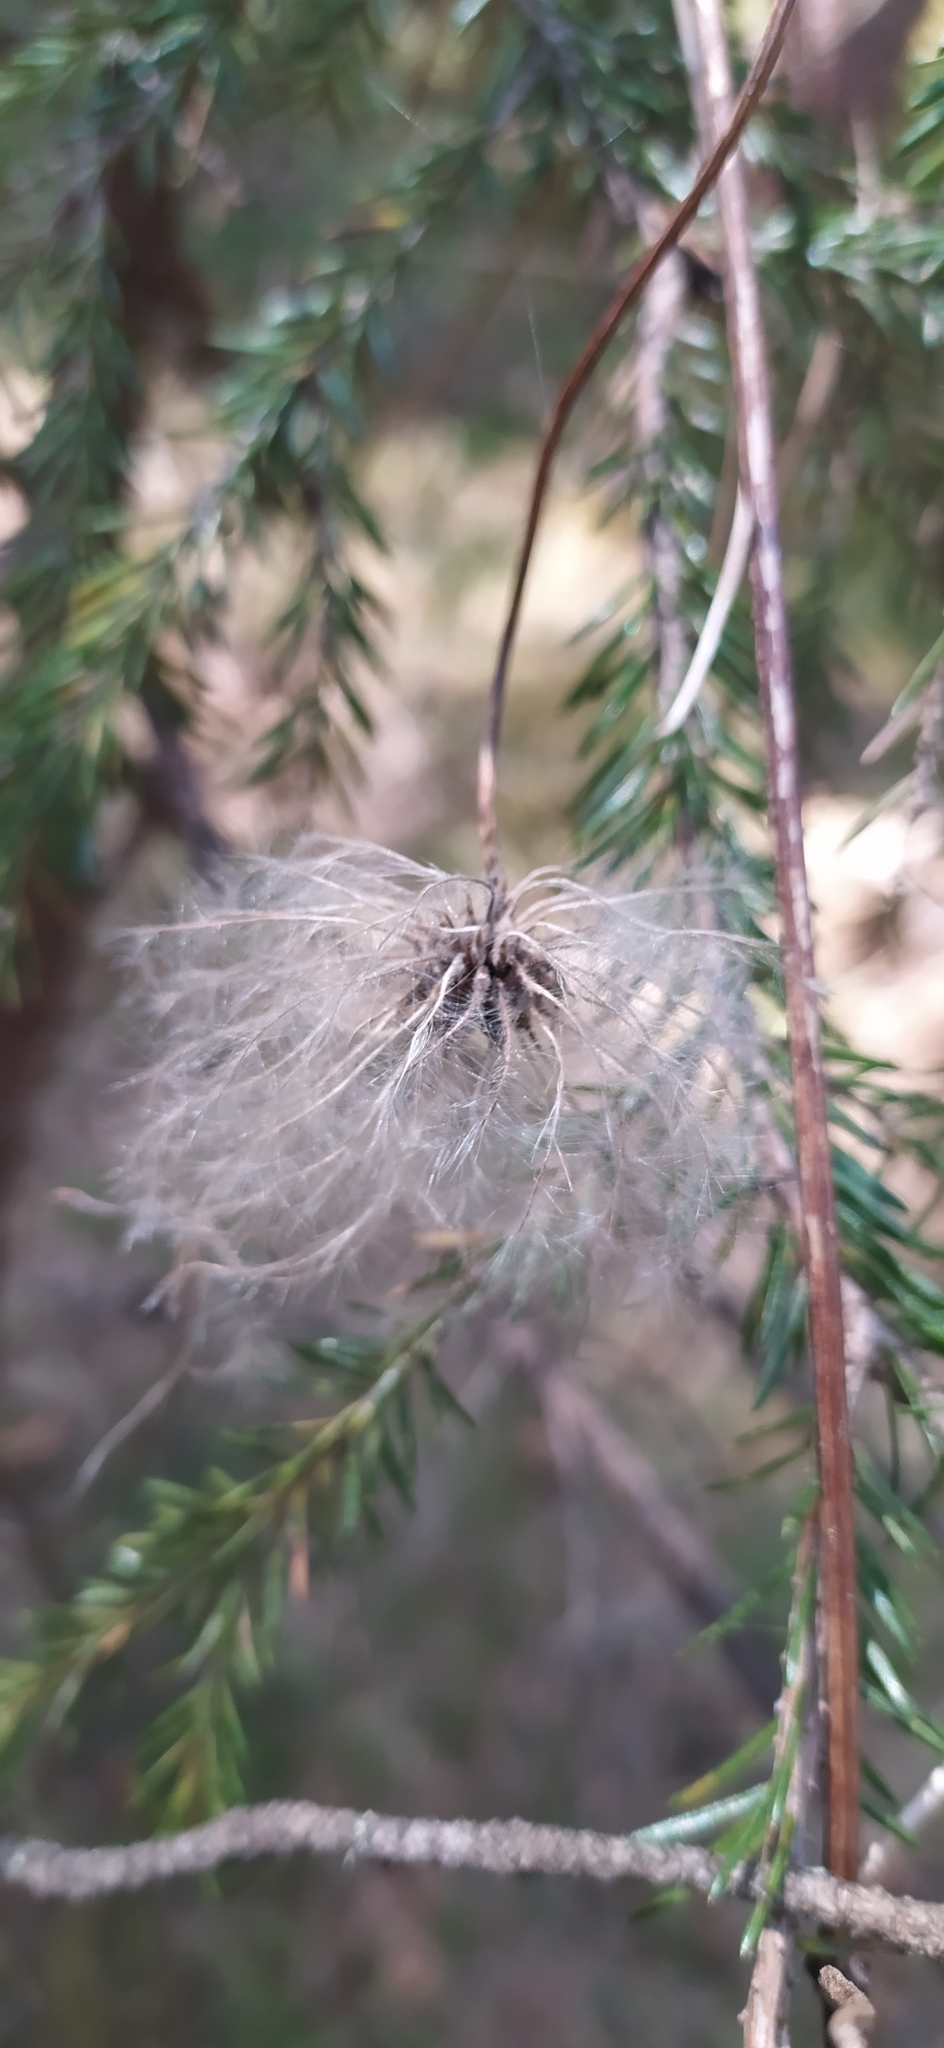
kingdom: Plantae
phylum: Tracheophyta
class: Magnoliopsida
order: Ranunculales
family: Ranunculaceae
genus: Clematis
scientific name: Clematis sibirica
